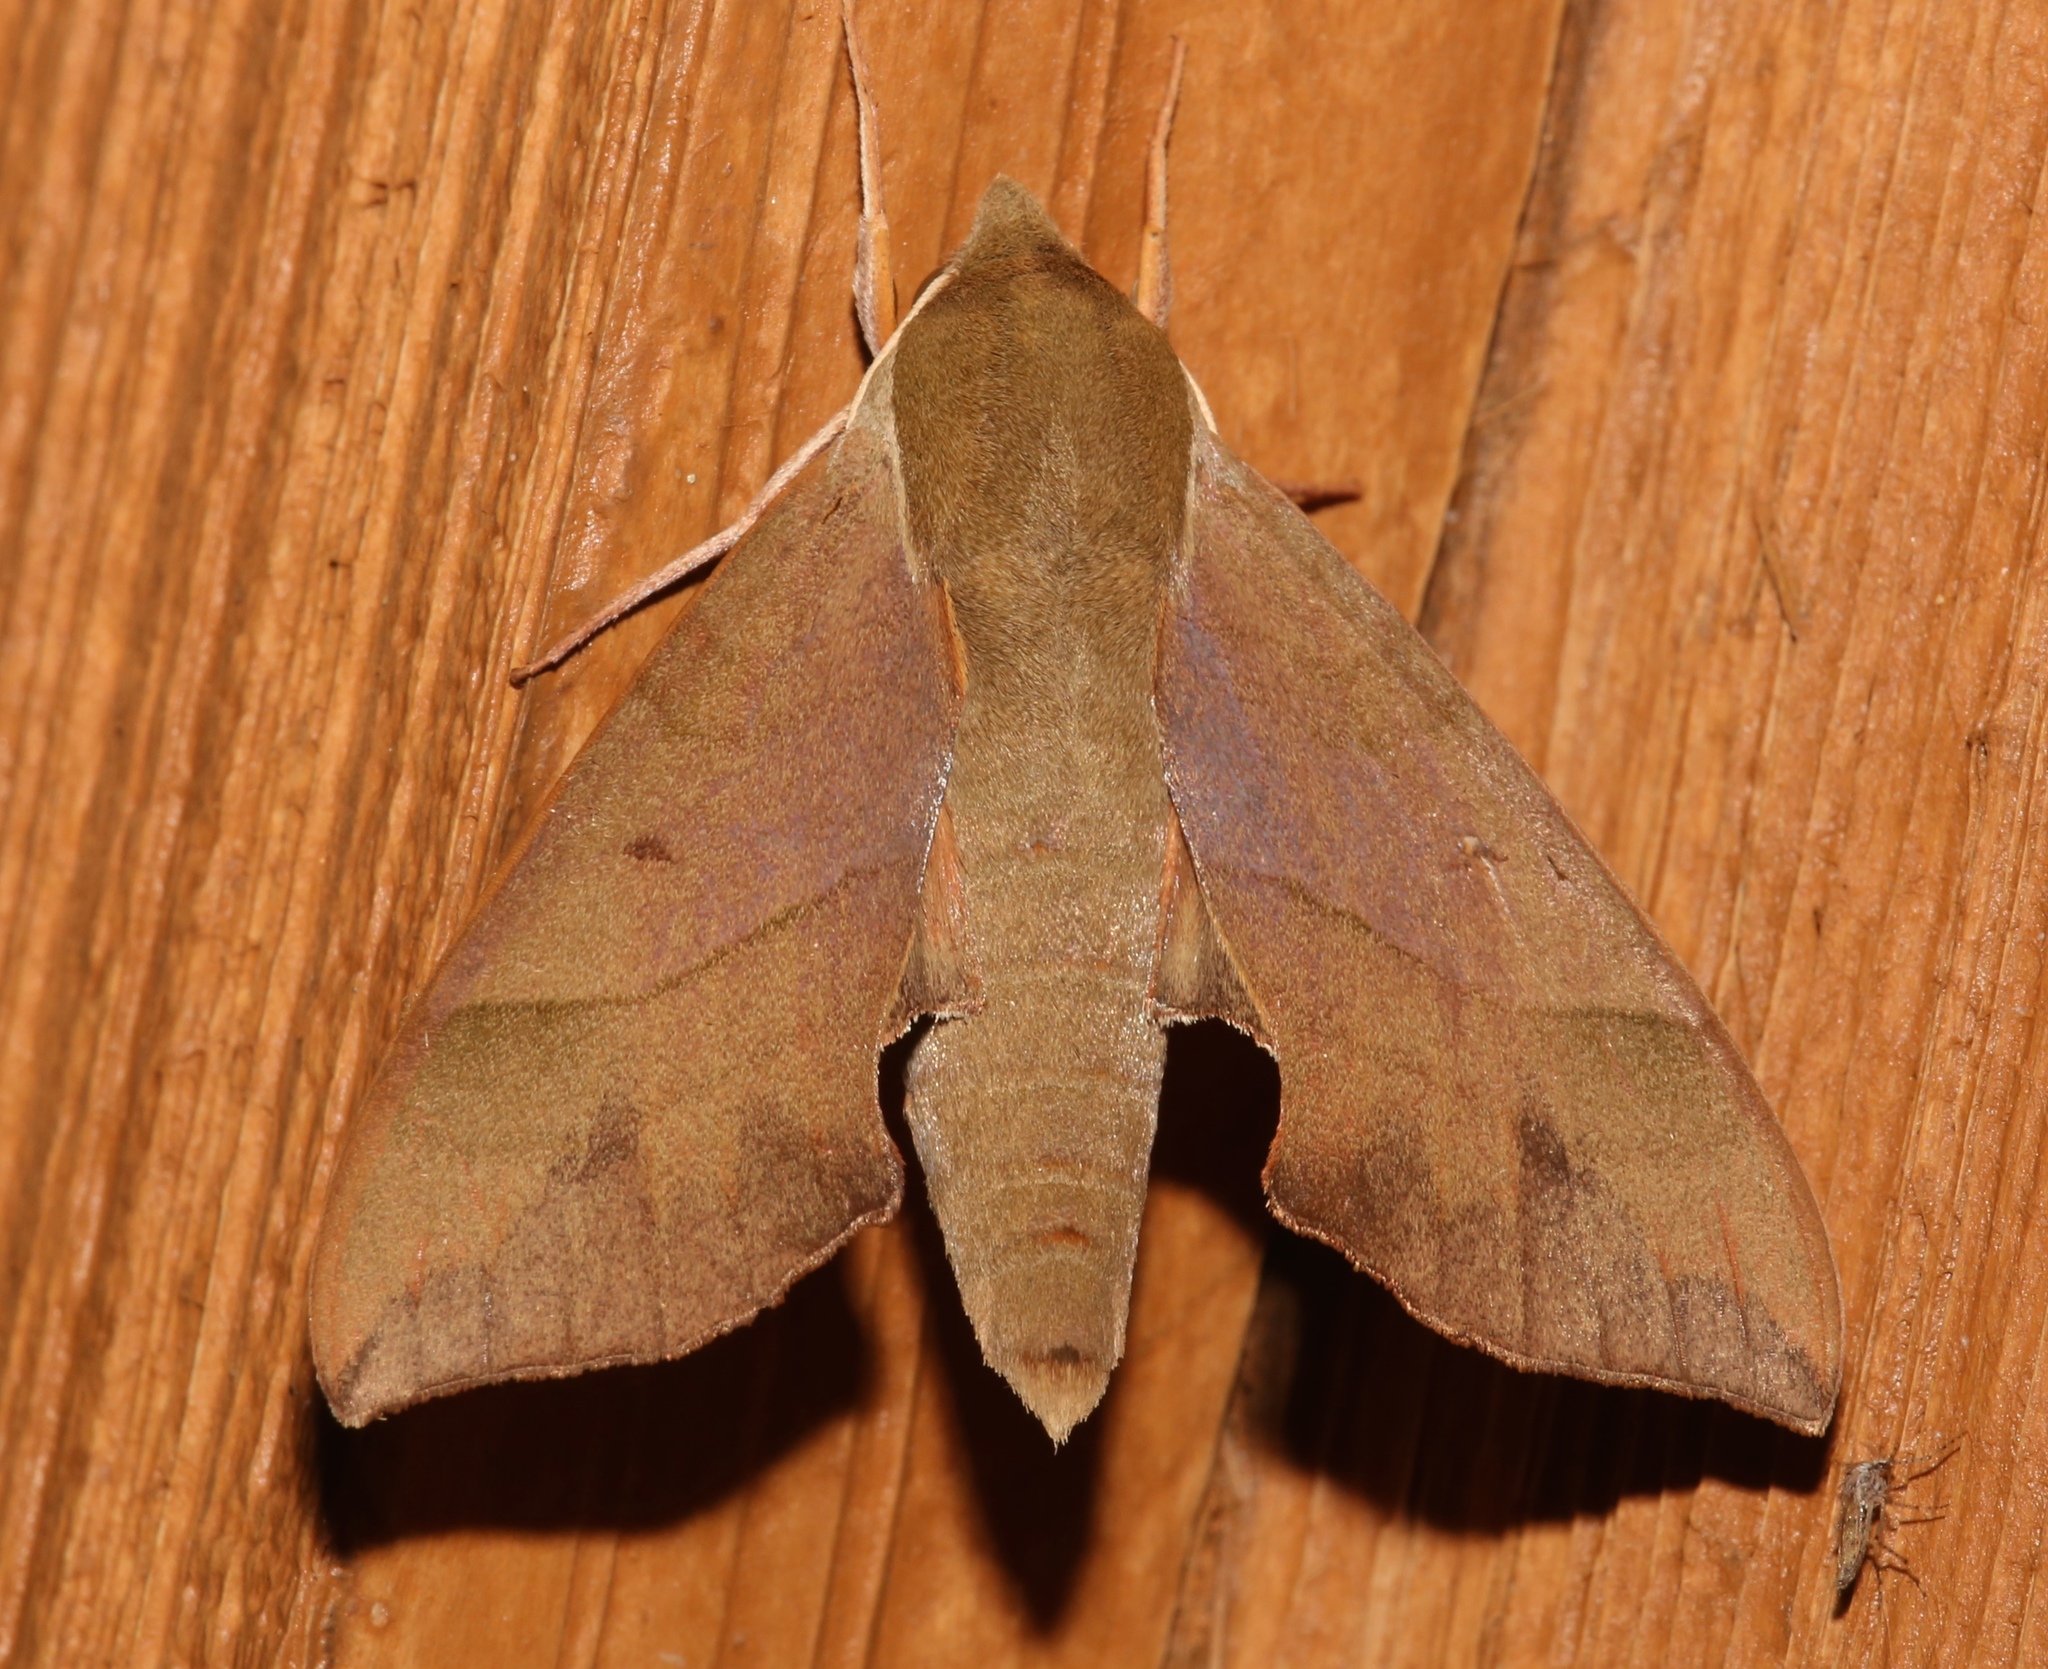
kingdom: Animalia
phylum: Arthropoda
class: Insecta
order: Lepidoptera
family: Sphingidae
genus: Darapsa
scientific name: Darapsa myron
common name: Hog sphinx
